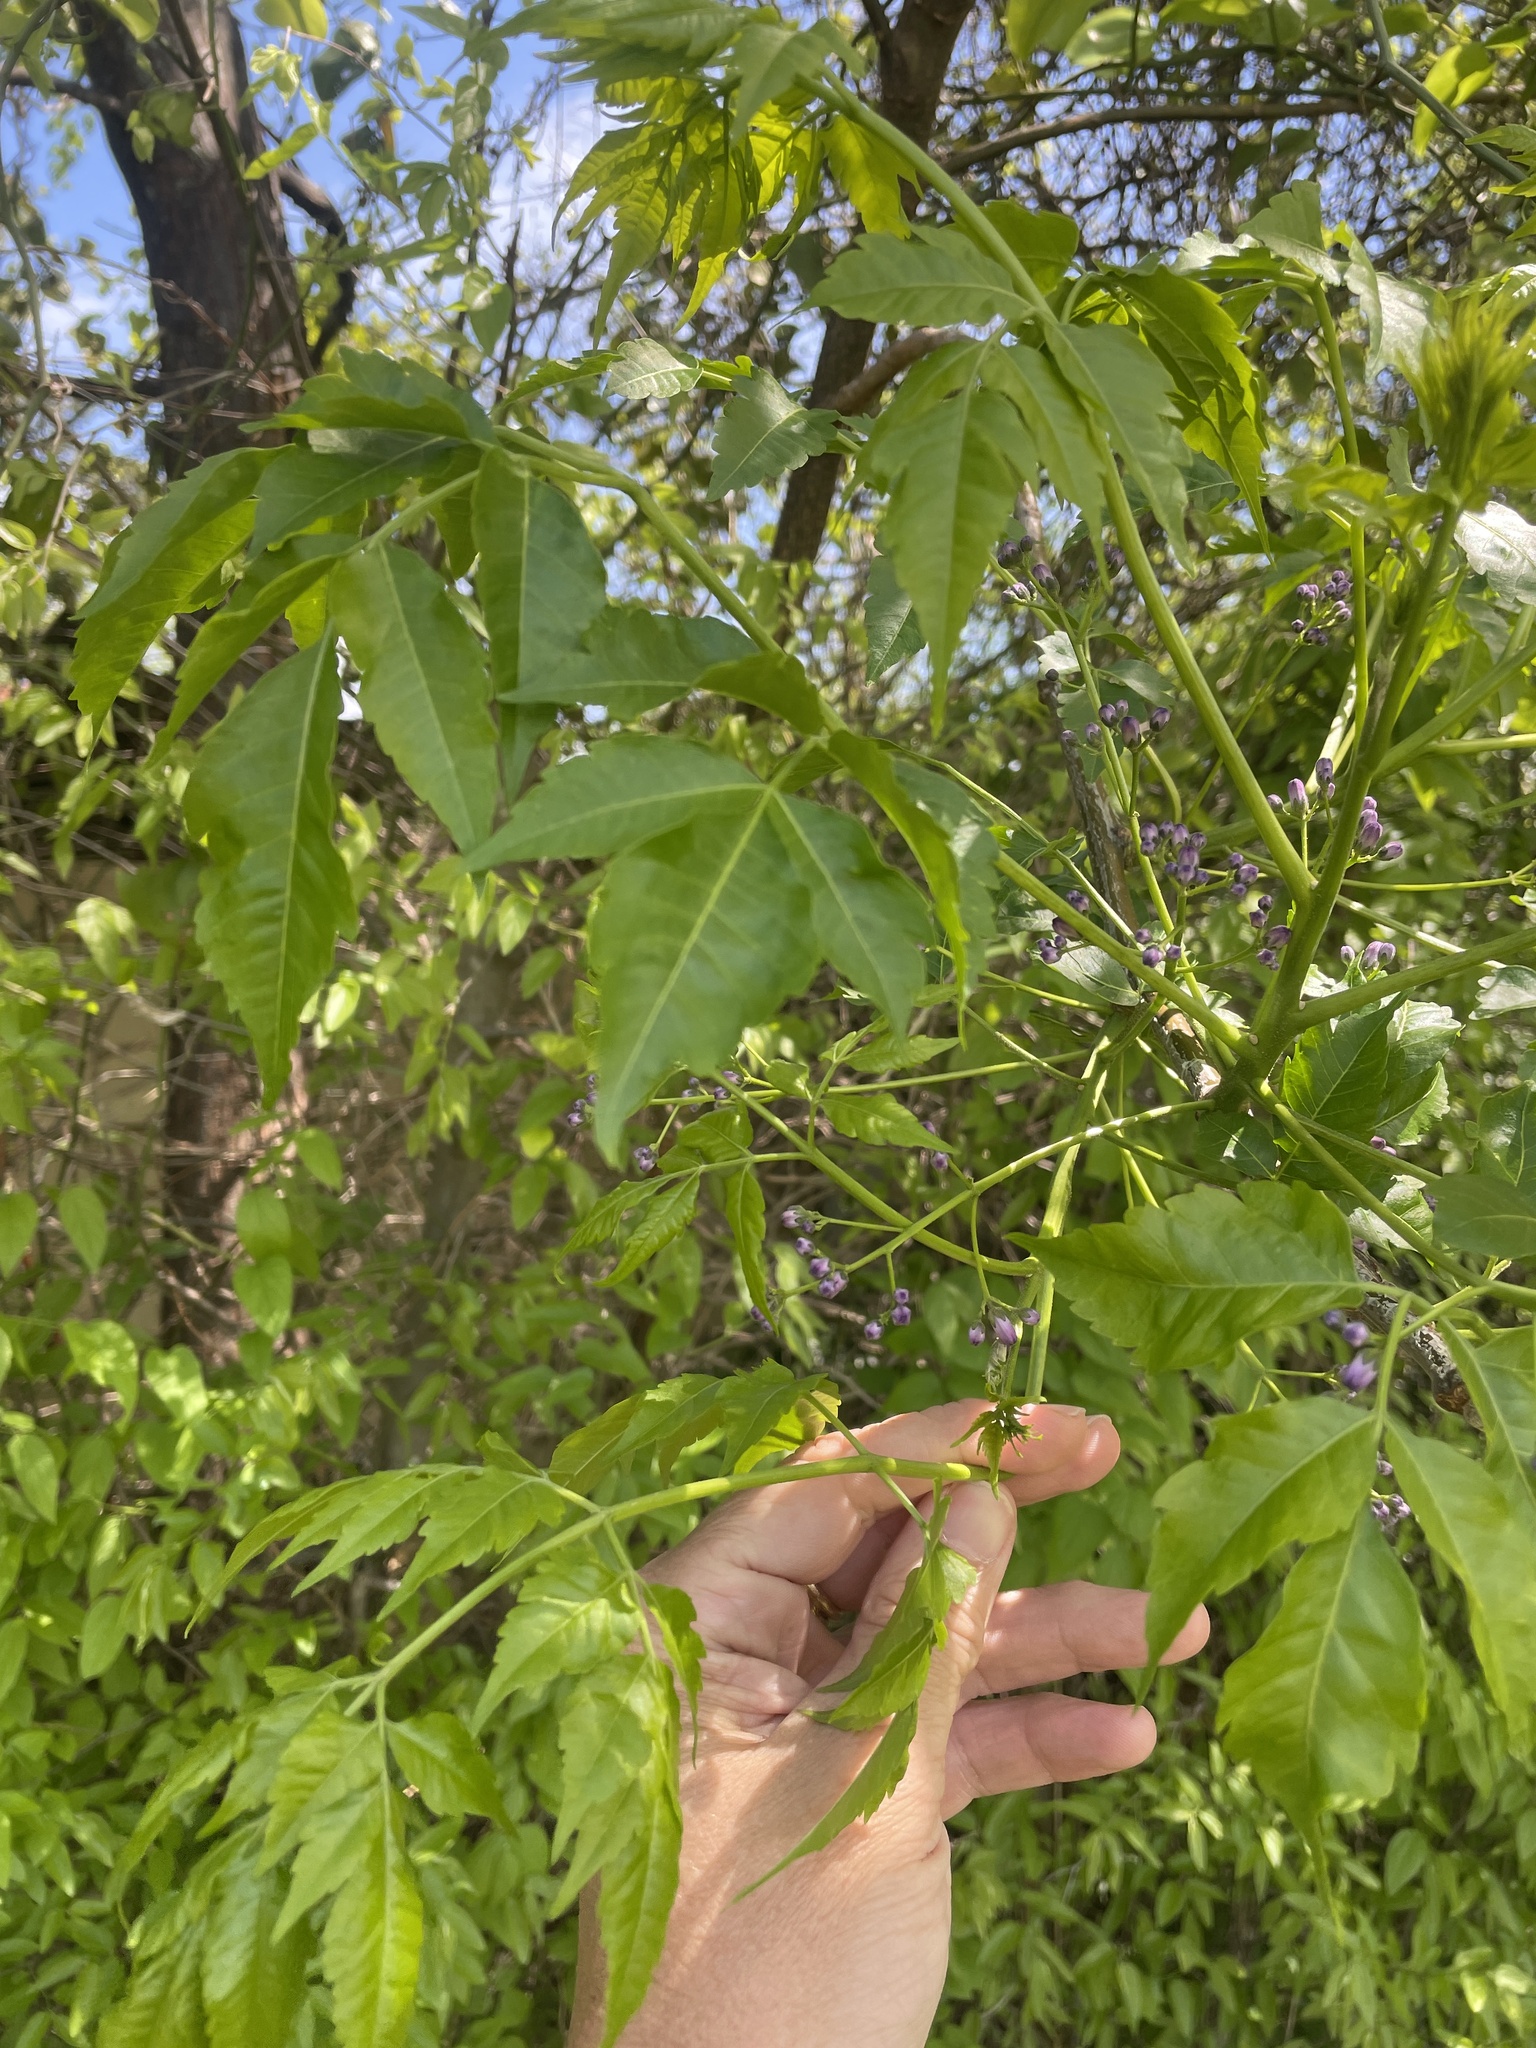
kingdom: Plantae
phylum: Tracheophyta
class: Magnoliopsida
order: Sapindales
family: Meliaceae
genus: Melia
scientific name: Melia azedarach
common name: Chinaberrytree
